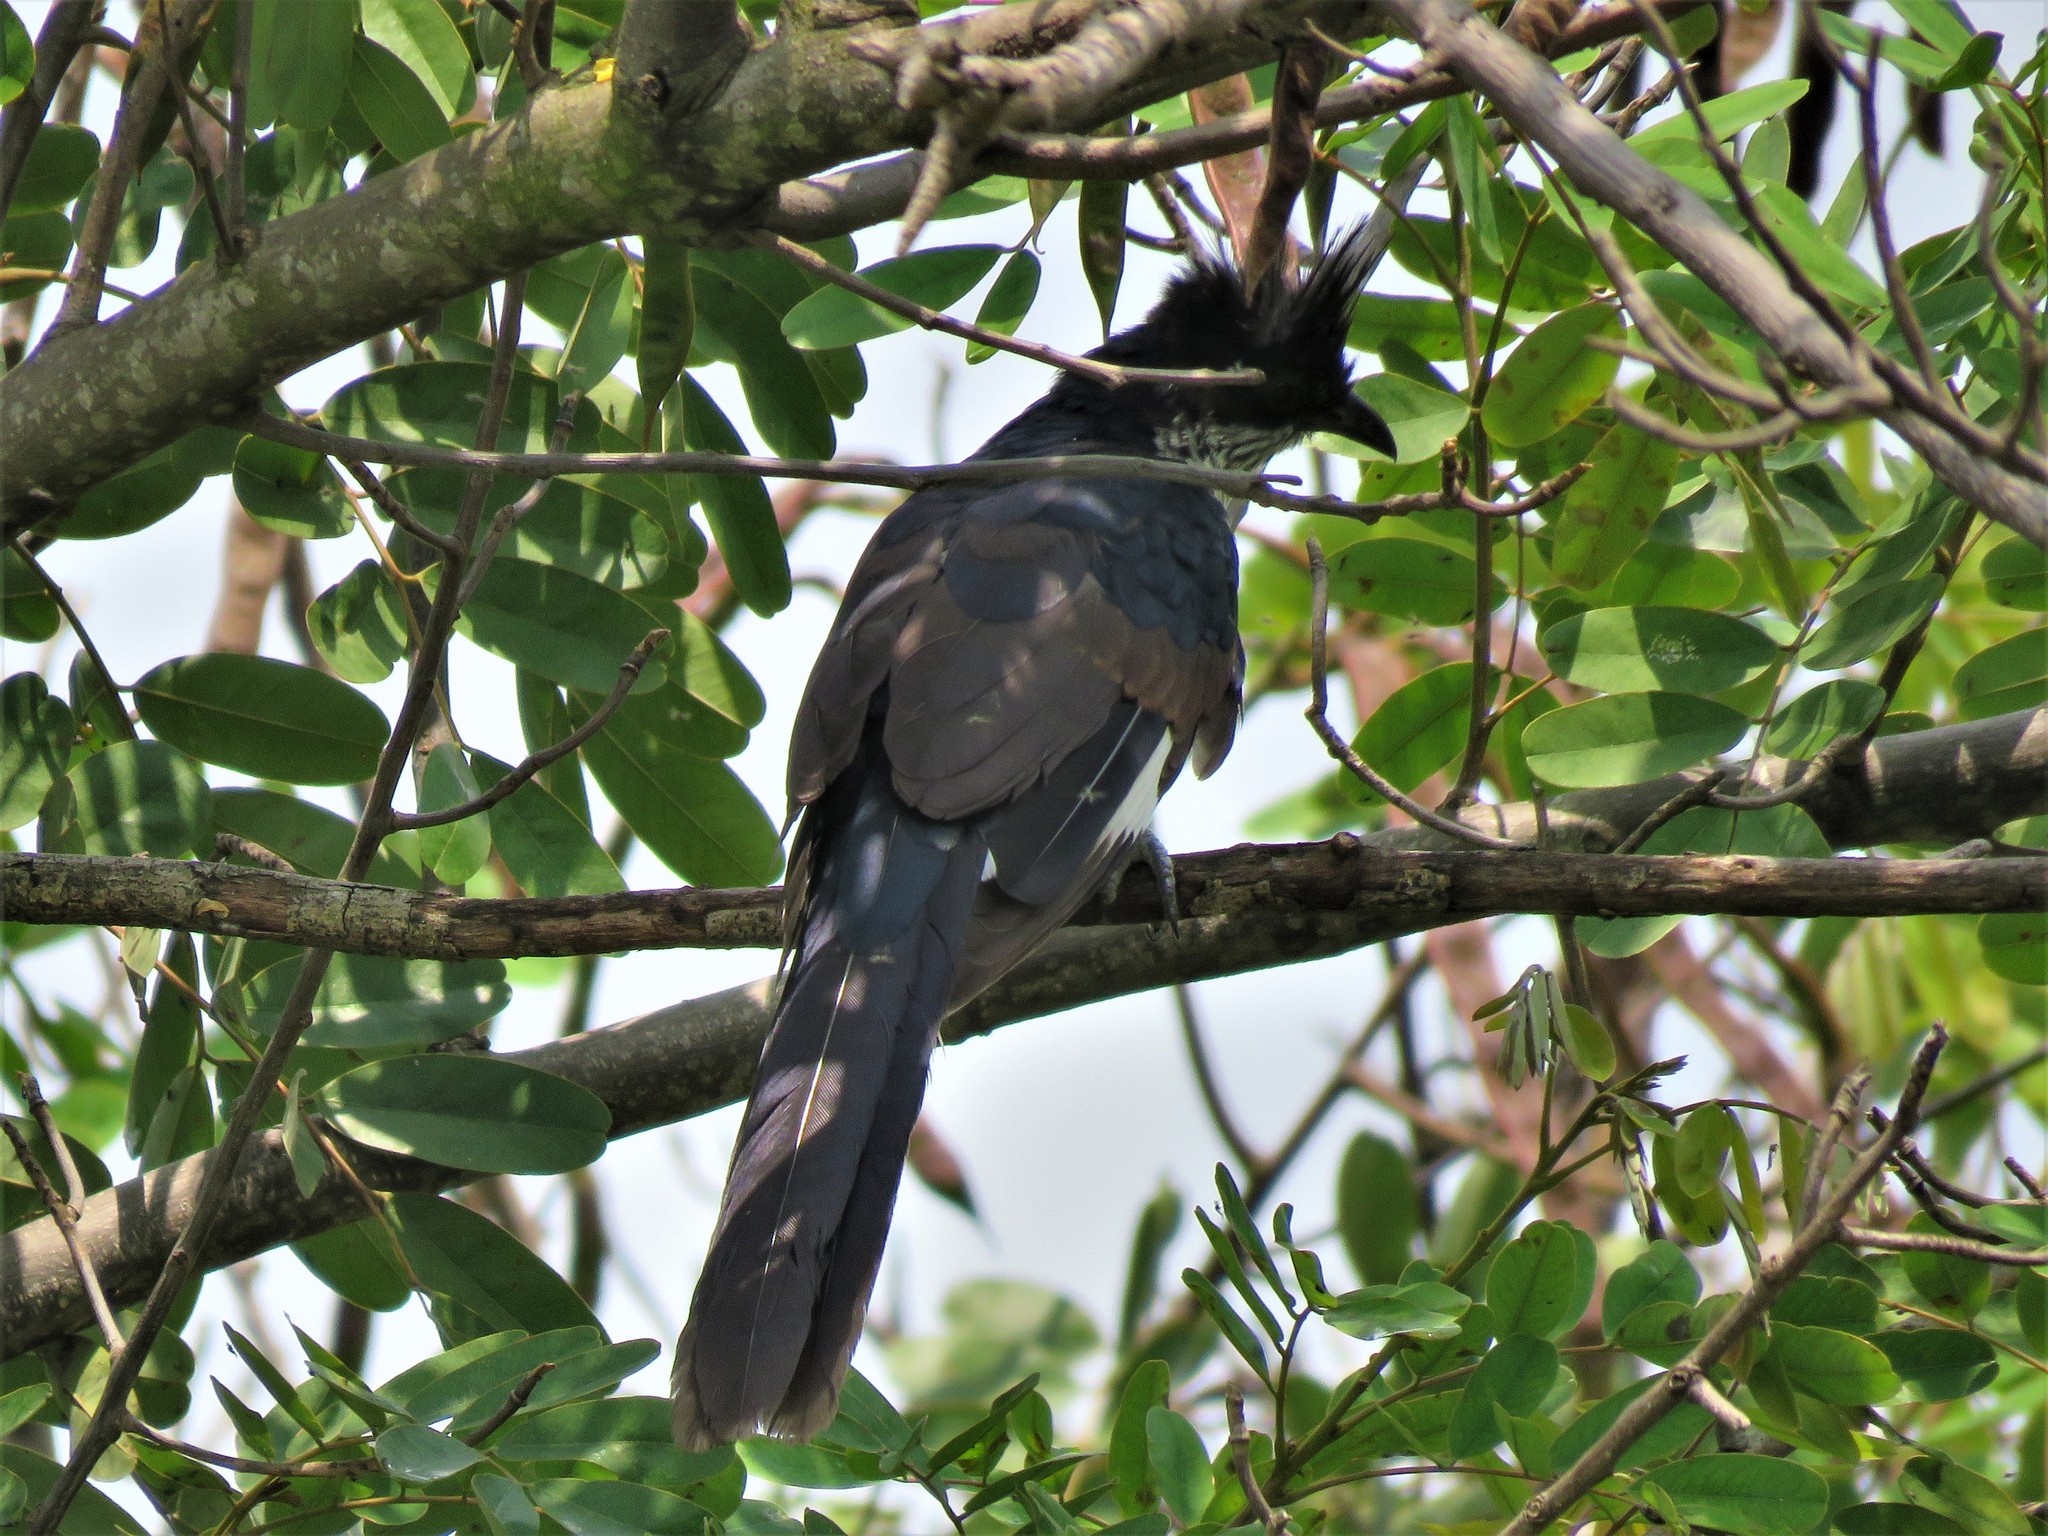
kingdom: Animalia
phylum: Chordata
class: Aves
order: Cuculiformes
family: Cuculidae
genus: Clamator
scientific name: Clamator levaillantii
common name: Levaillant's cuckoo
